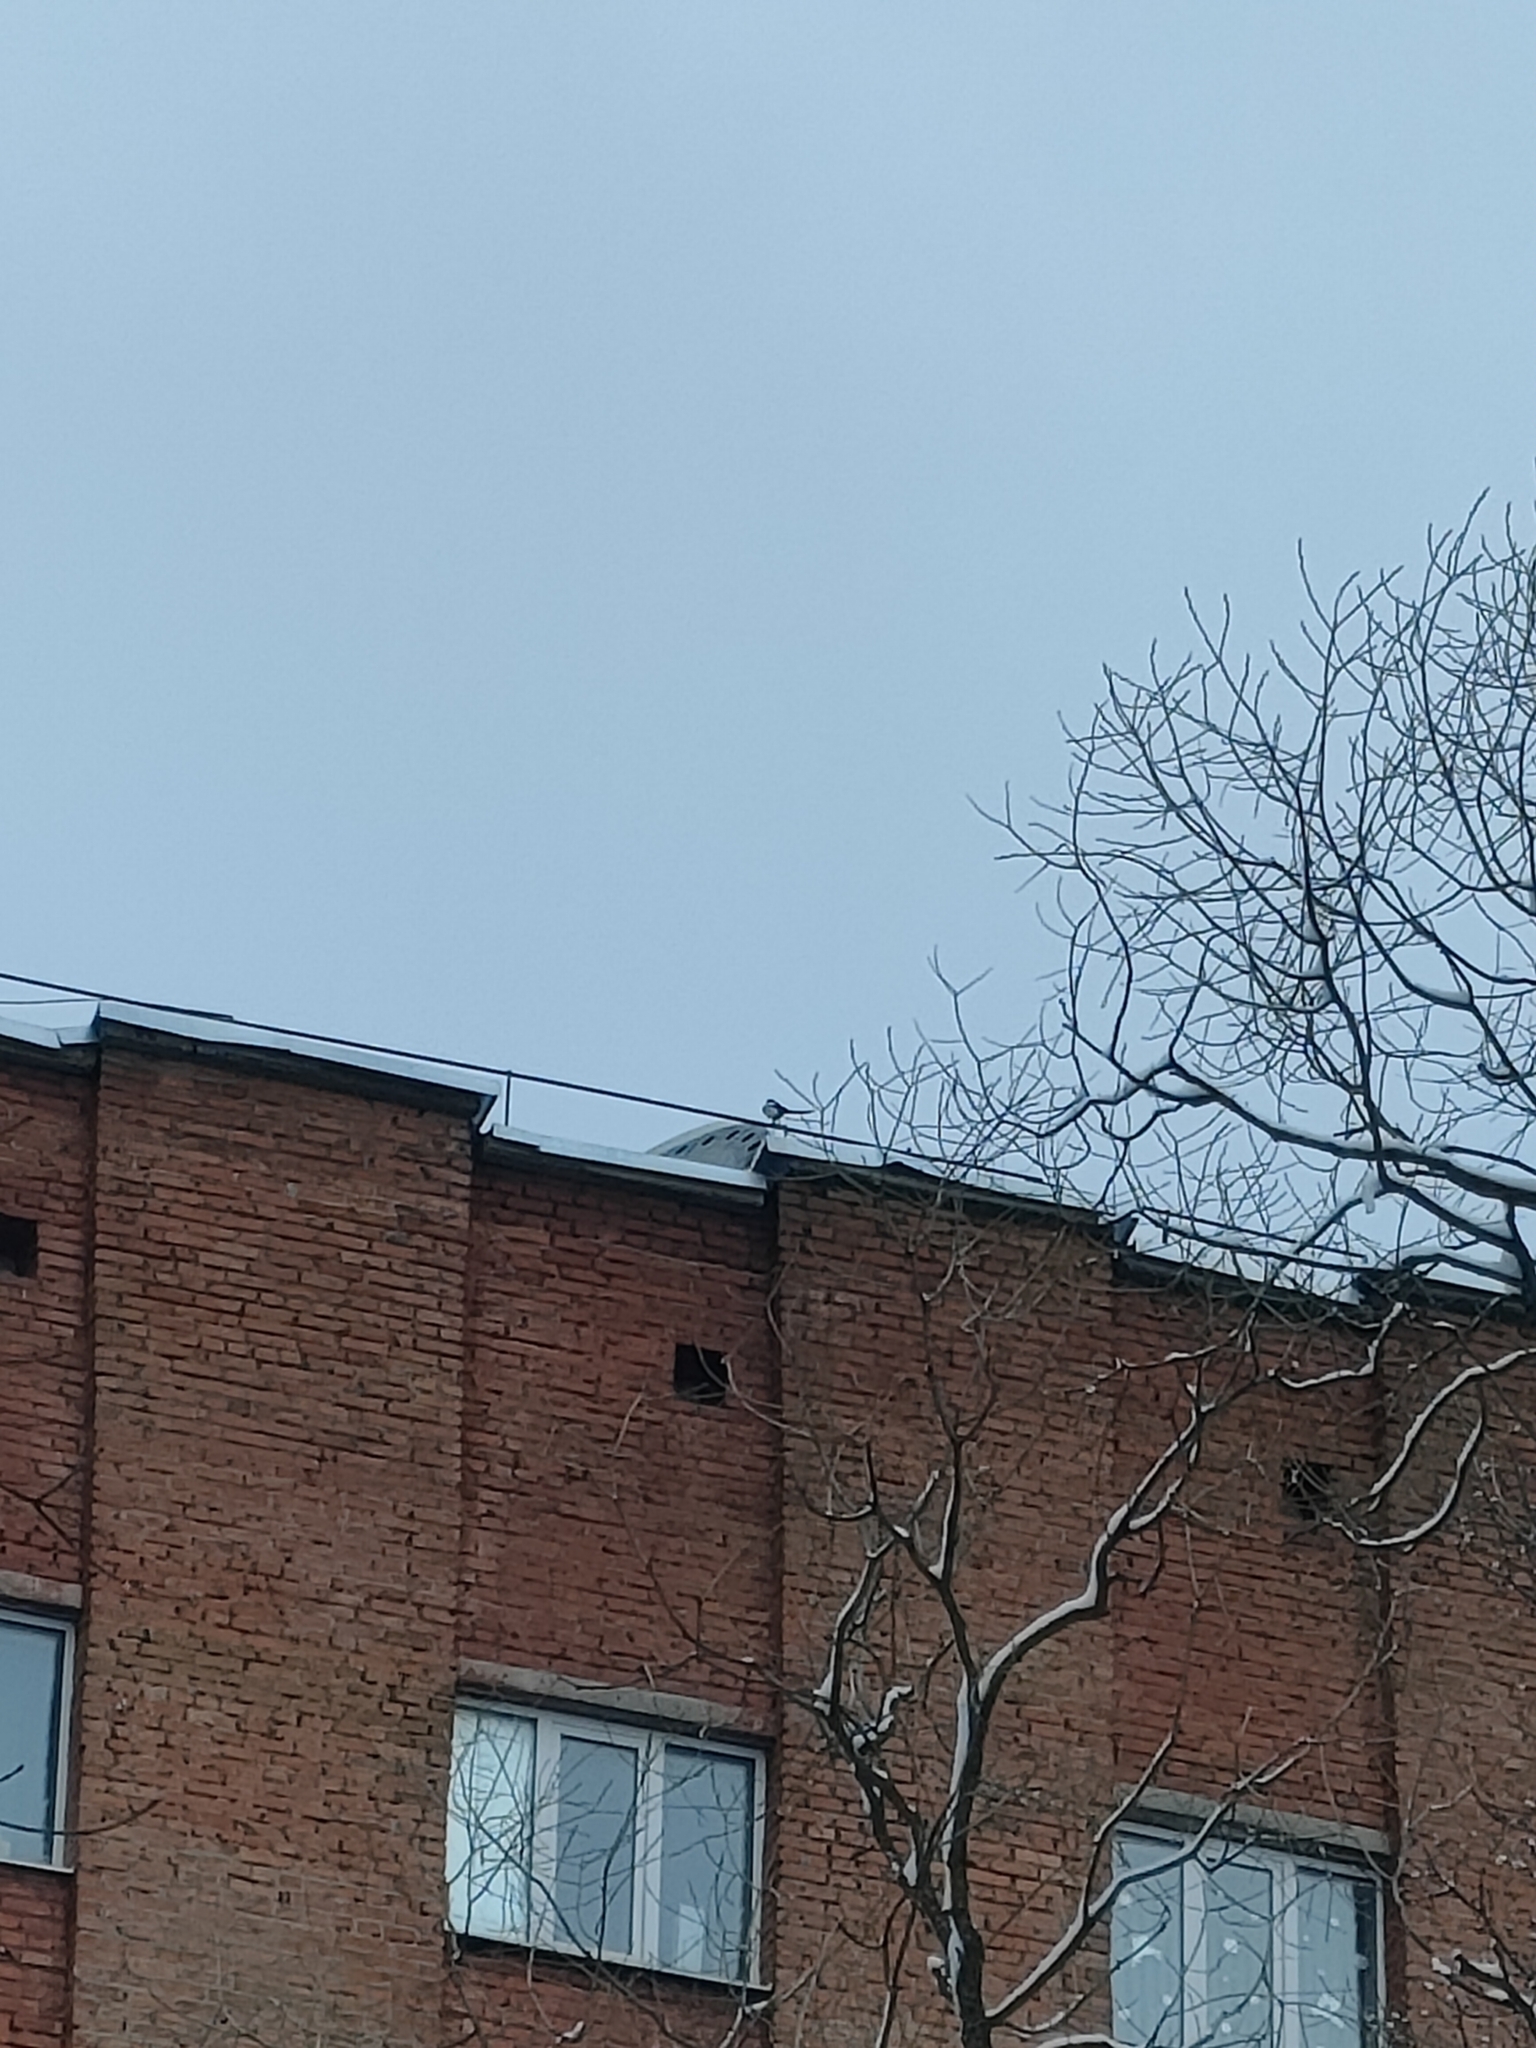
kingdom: Animalia
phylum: Chordata
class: Aves
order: Passeriformes
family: Corvidae
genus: Pica
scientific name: Pica pica
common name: Eurasian magpie
